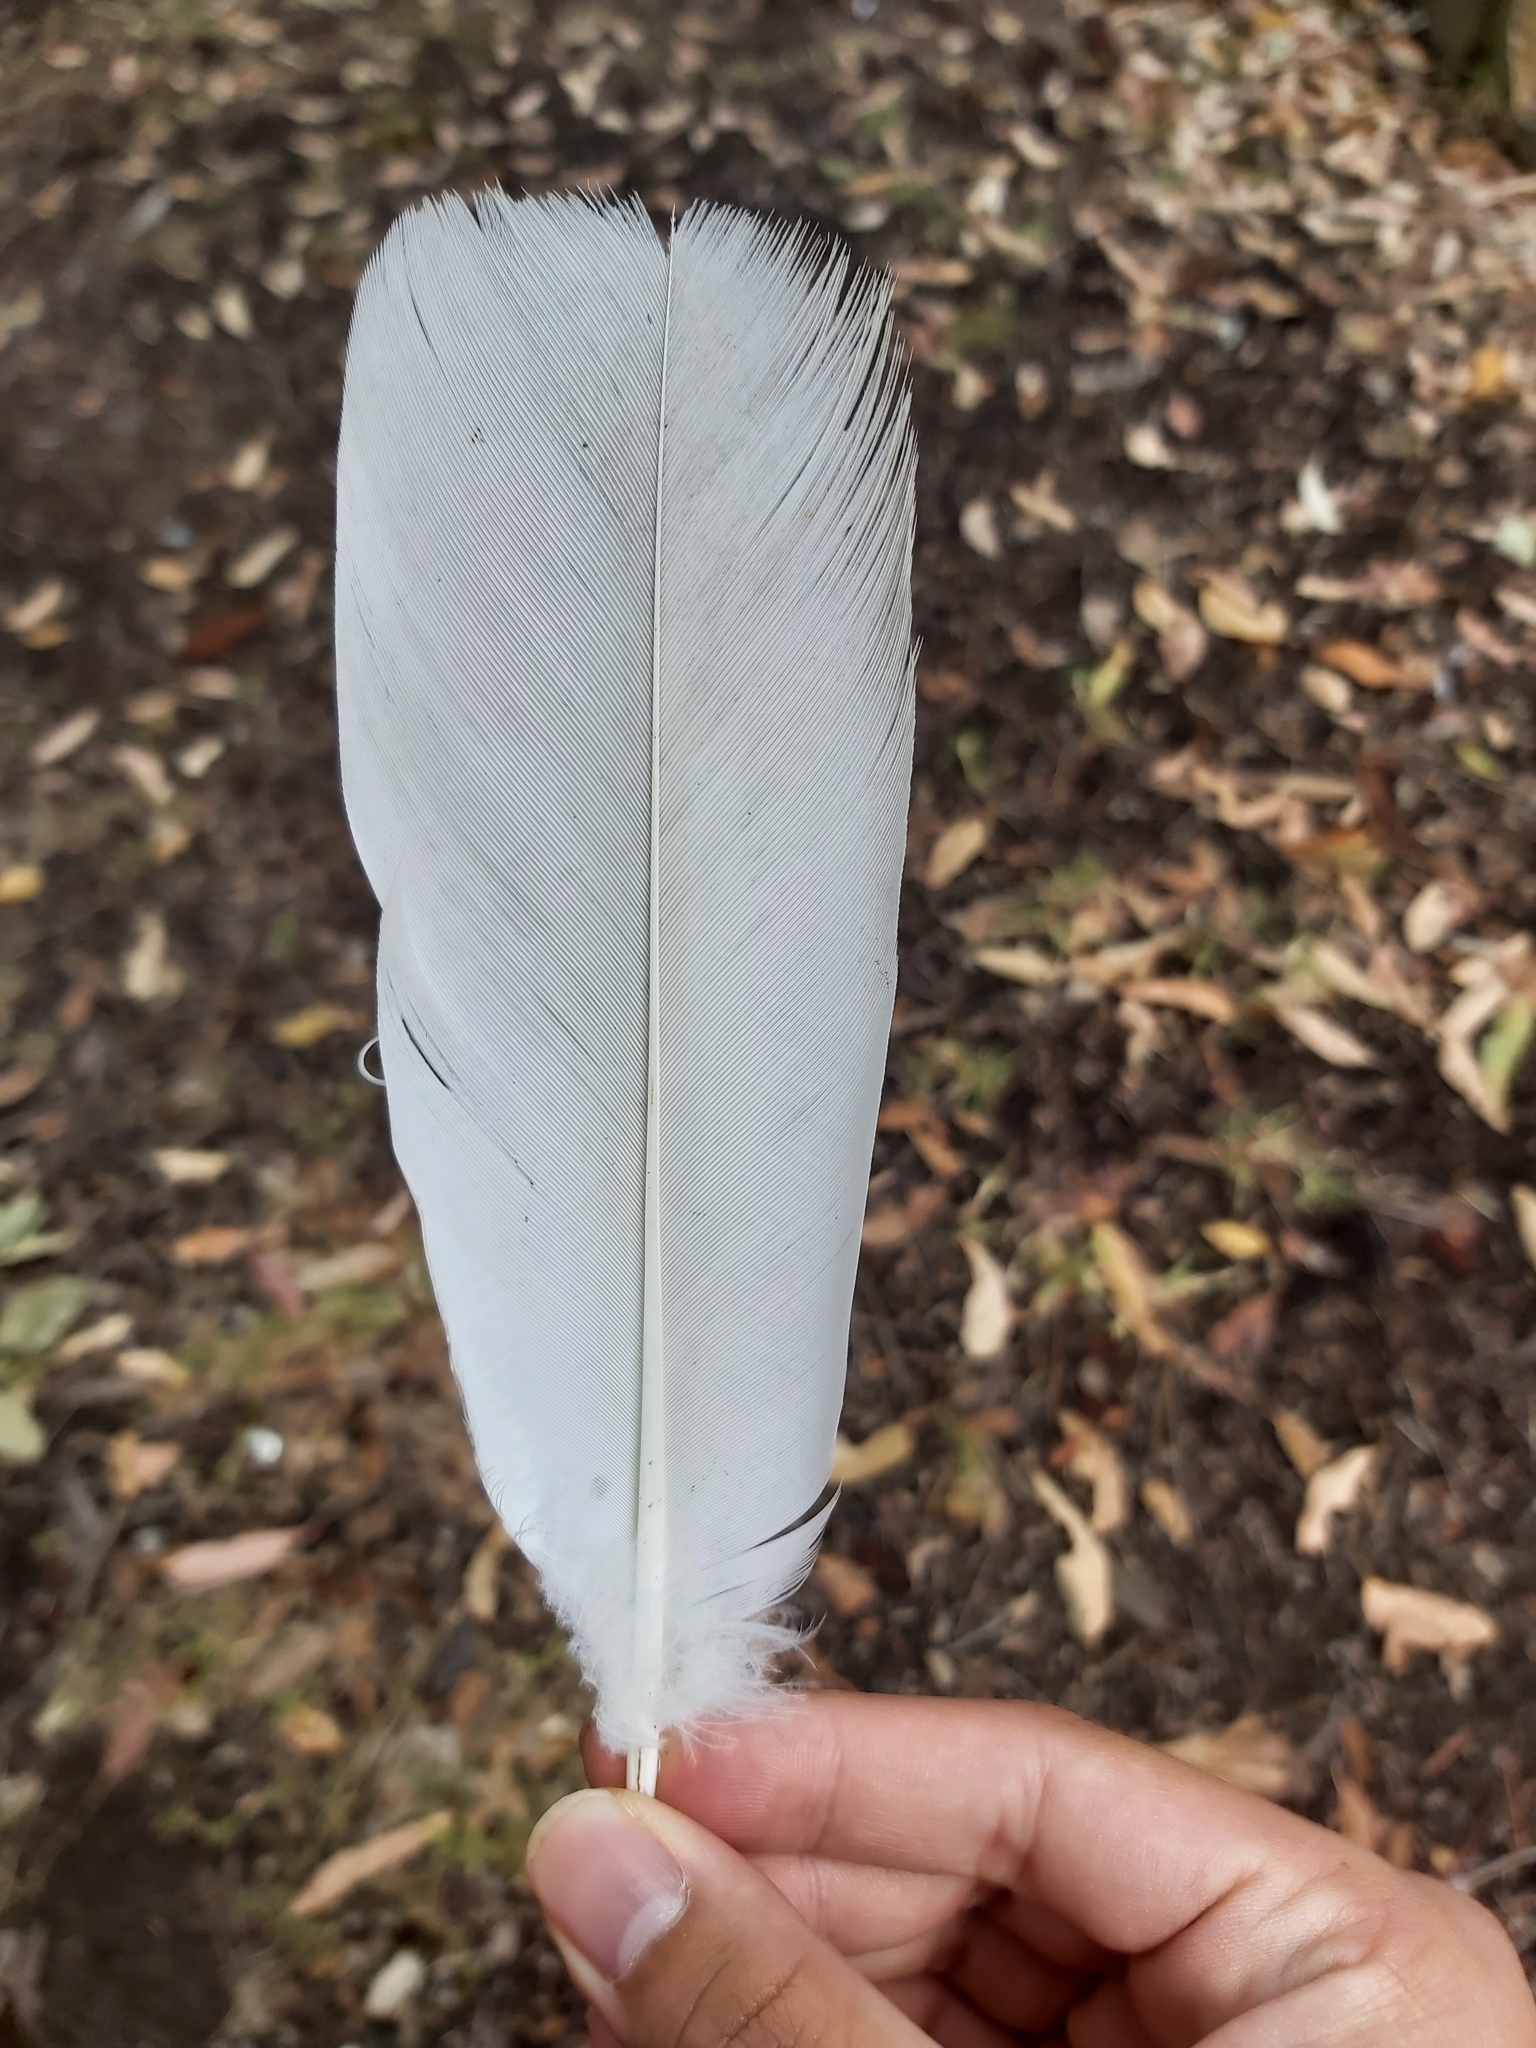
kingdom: Animalia
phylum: Chordata
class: Aves
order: Psittaciformes
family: Psittacidae
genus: Cacatua
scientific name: Cacatua galerita
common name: Sulphur-crested cockatoo
